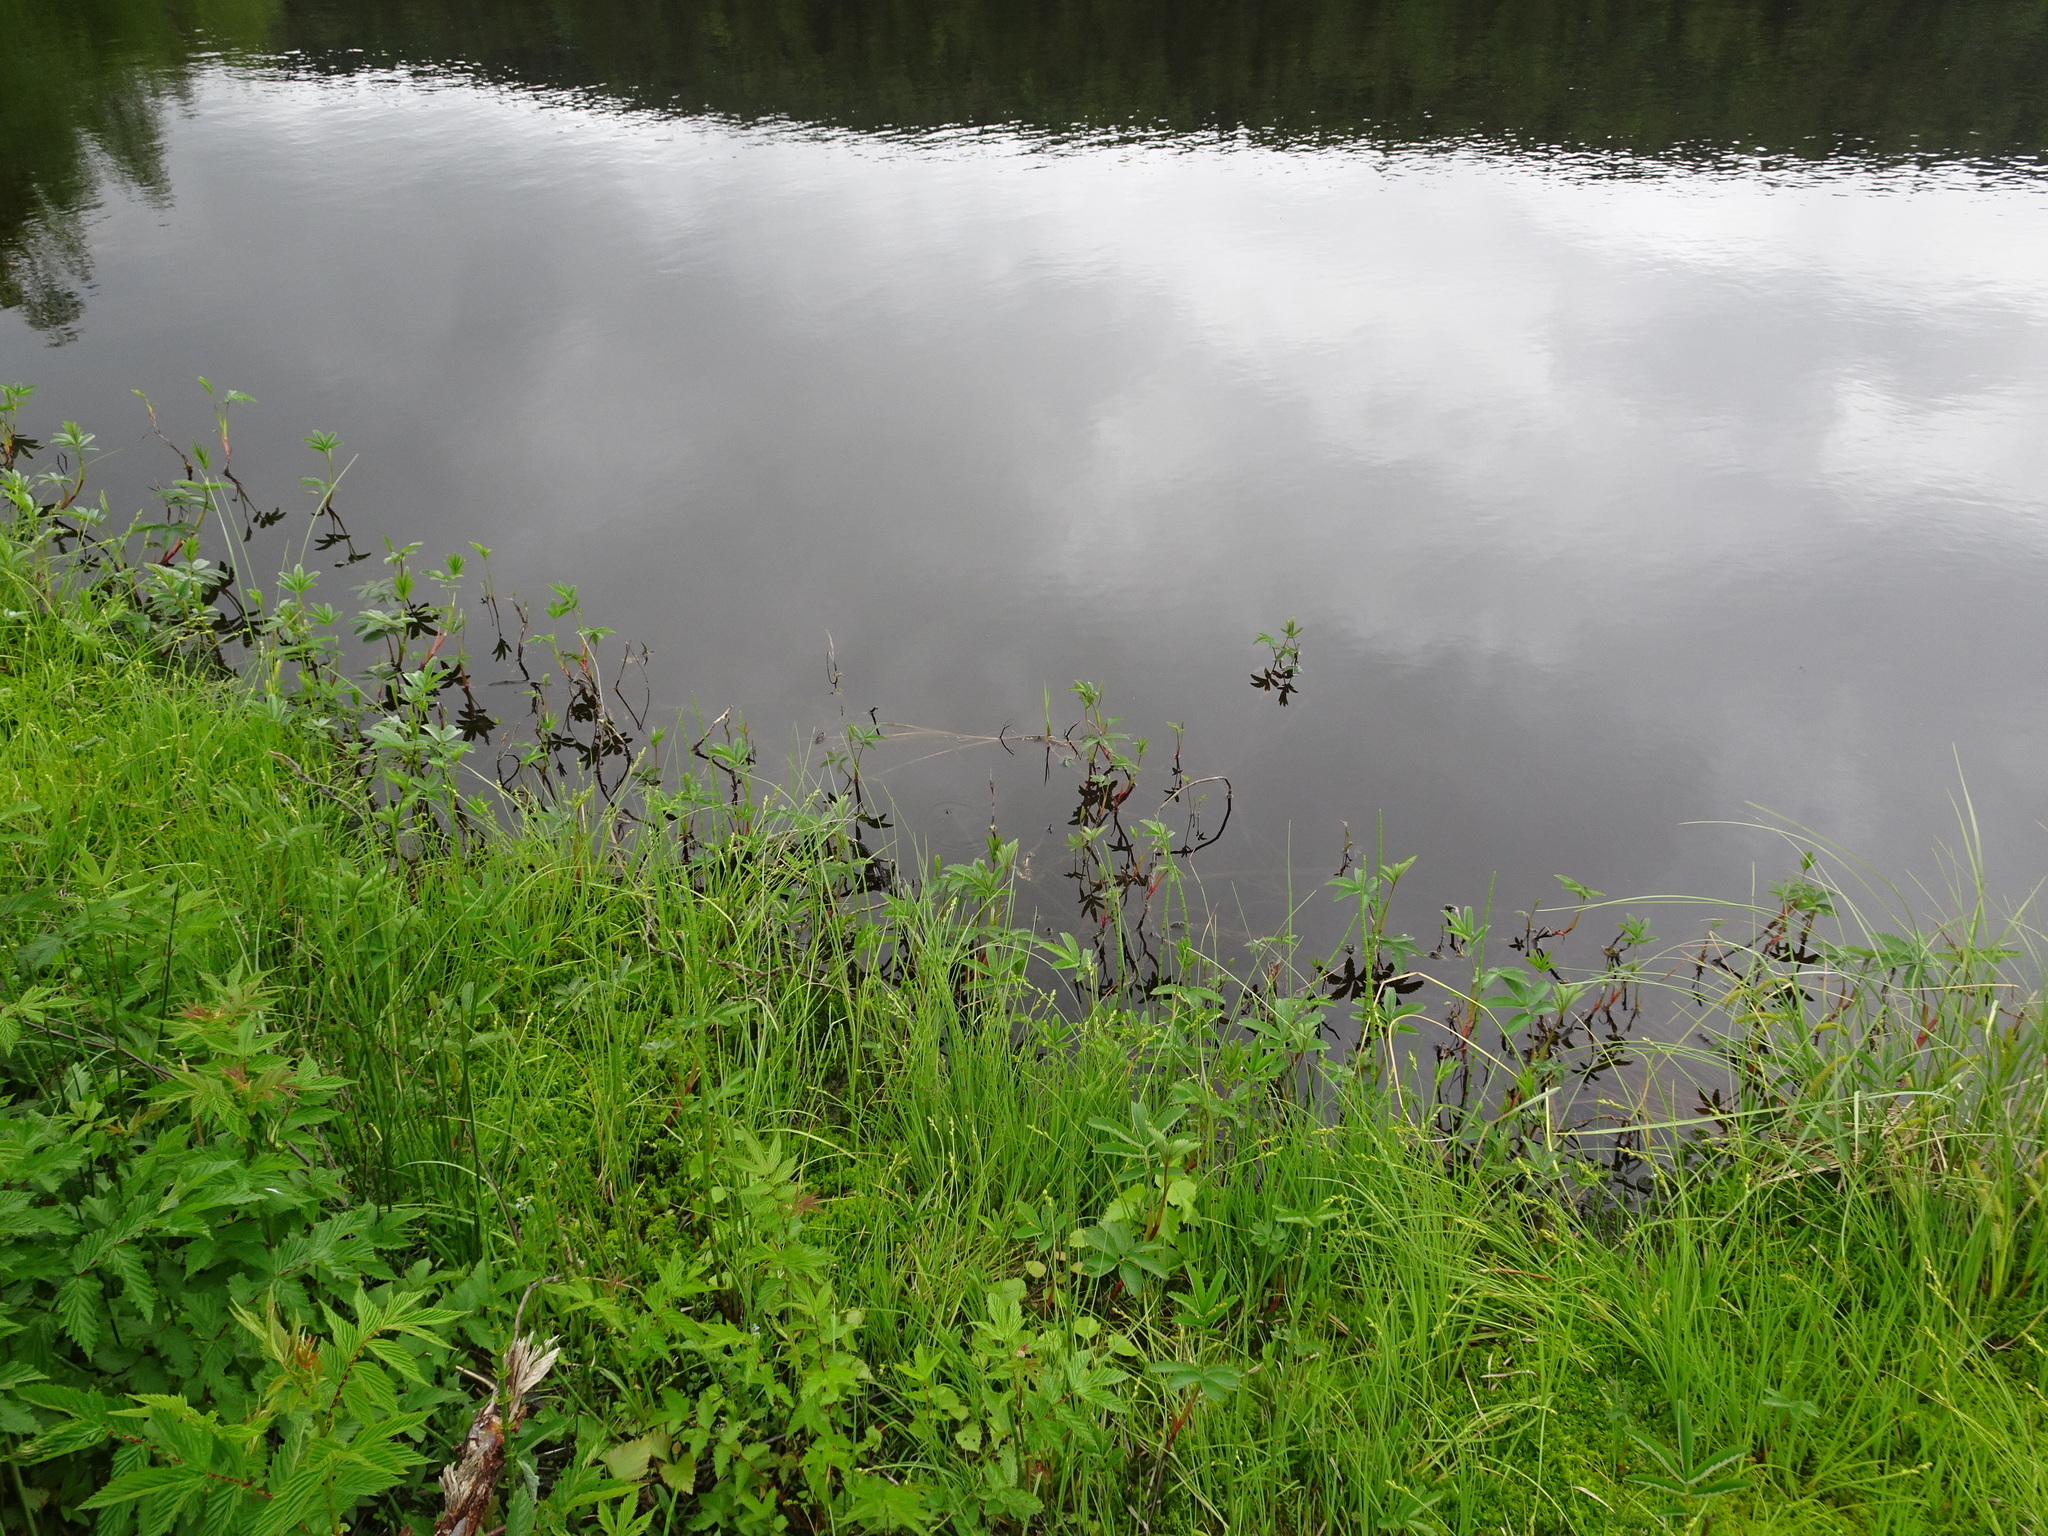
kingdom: Plantae
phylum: Tracheophyta
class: Magnoliopsida
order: Rosales
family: Rosaceae
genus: Comarum
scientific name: Comarum palustre
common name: Marsh cinquefoil
